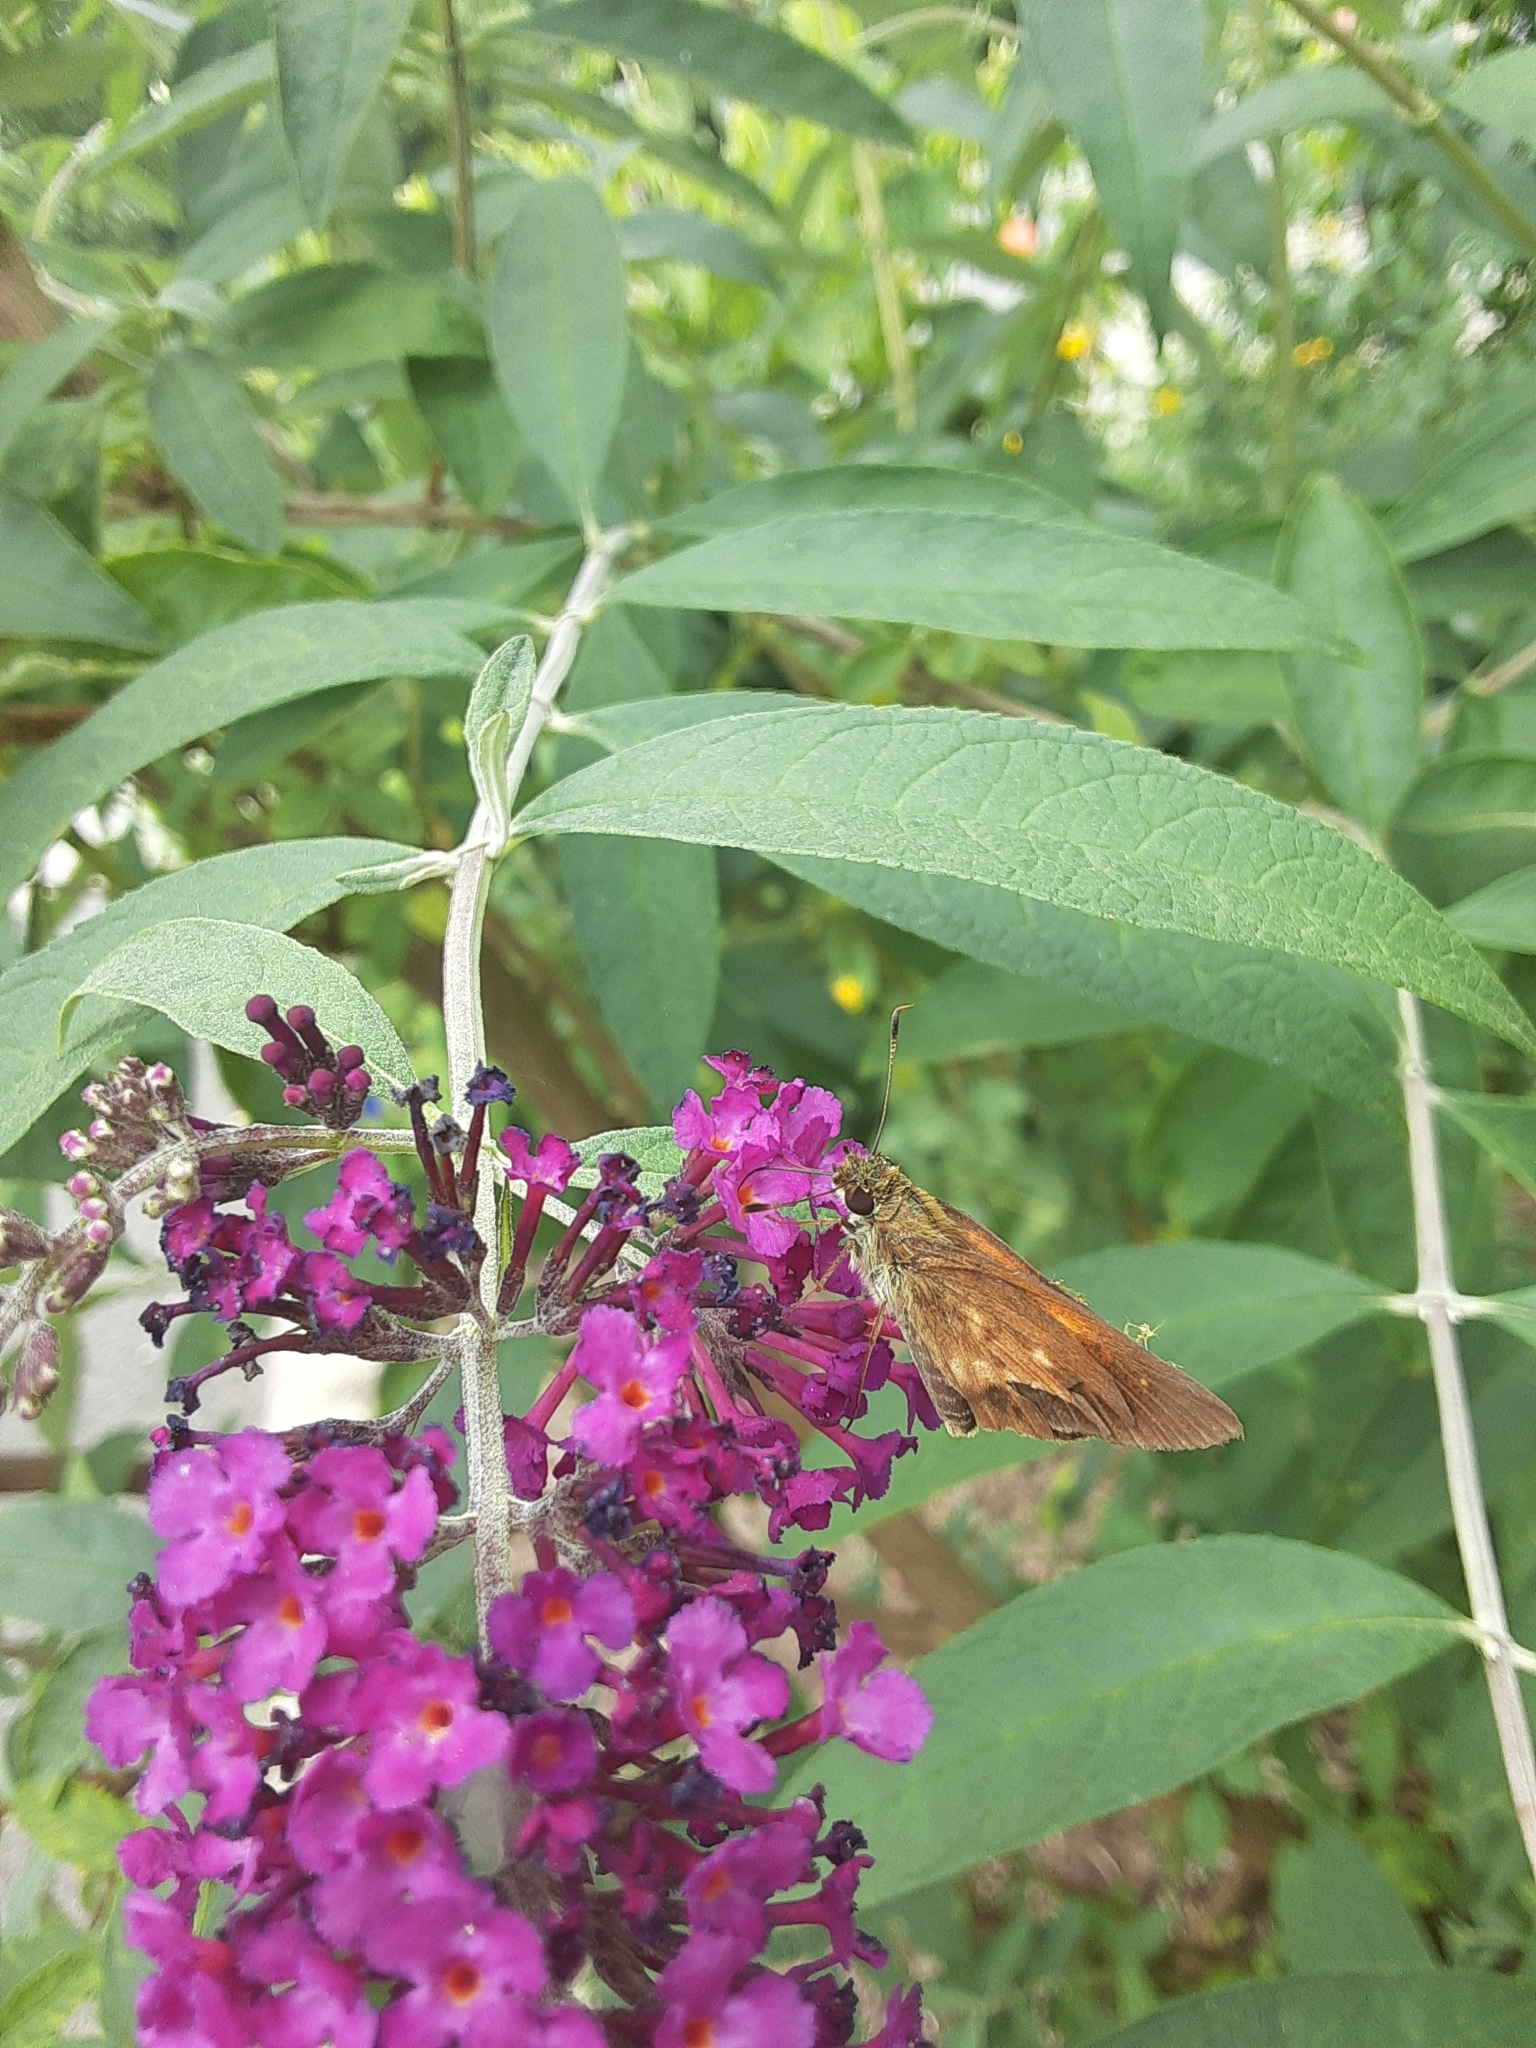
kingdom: Animalia
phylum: Arthropoda
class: Insecta
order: Lepidoptera
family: Hesperiidae
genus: Poanes
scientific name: Poanes viator
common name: Broad-winged skipper
